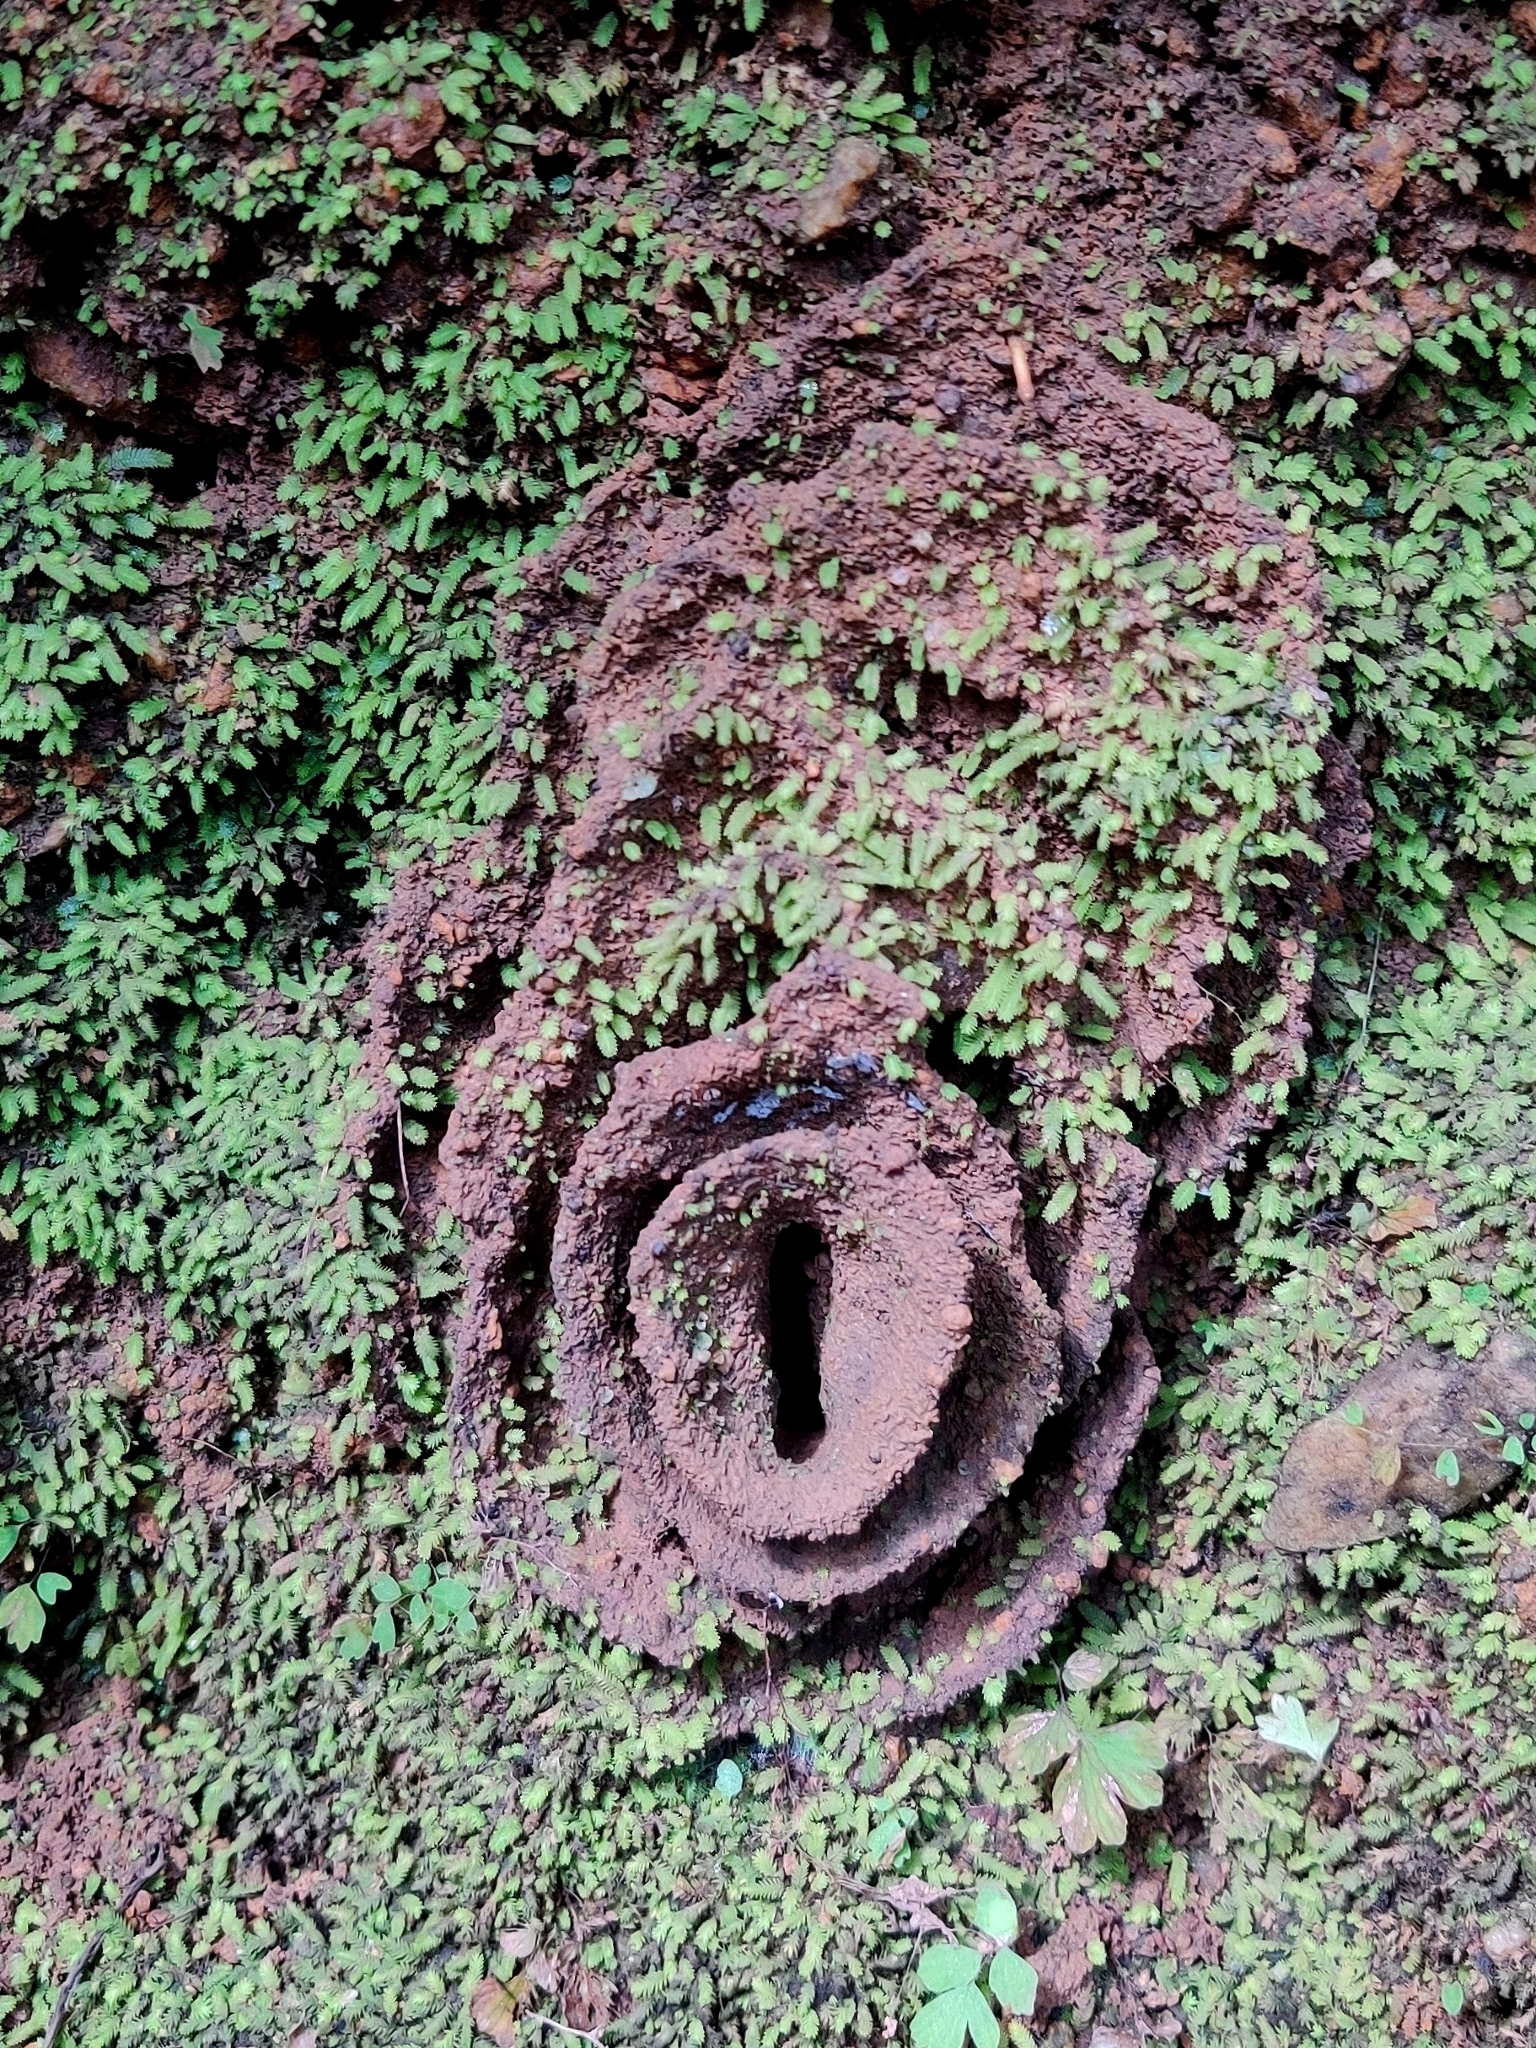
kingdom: Animalia
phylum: Arthropoda
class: Insecta
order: Hymenoptera
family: Formicidae
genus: Pheidole
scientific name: Pheidole sykesii
